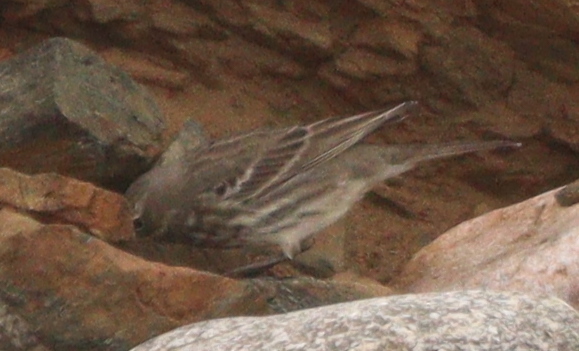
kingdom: Animalia
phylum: Chordata
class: Aves
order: Passeriformes
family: Motacillidae
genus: Anthus
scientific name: Anthus petrosus
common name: Eurasian rock pipit
